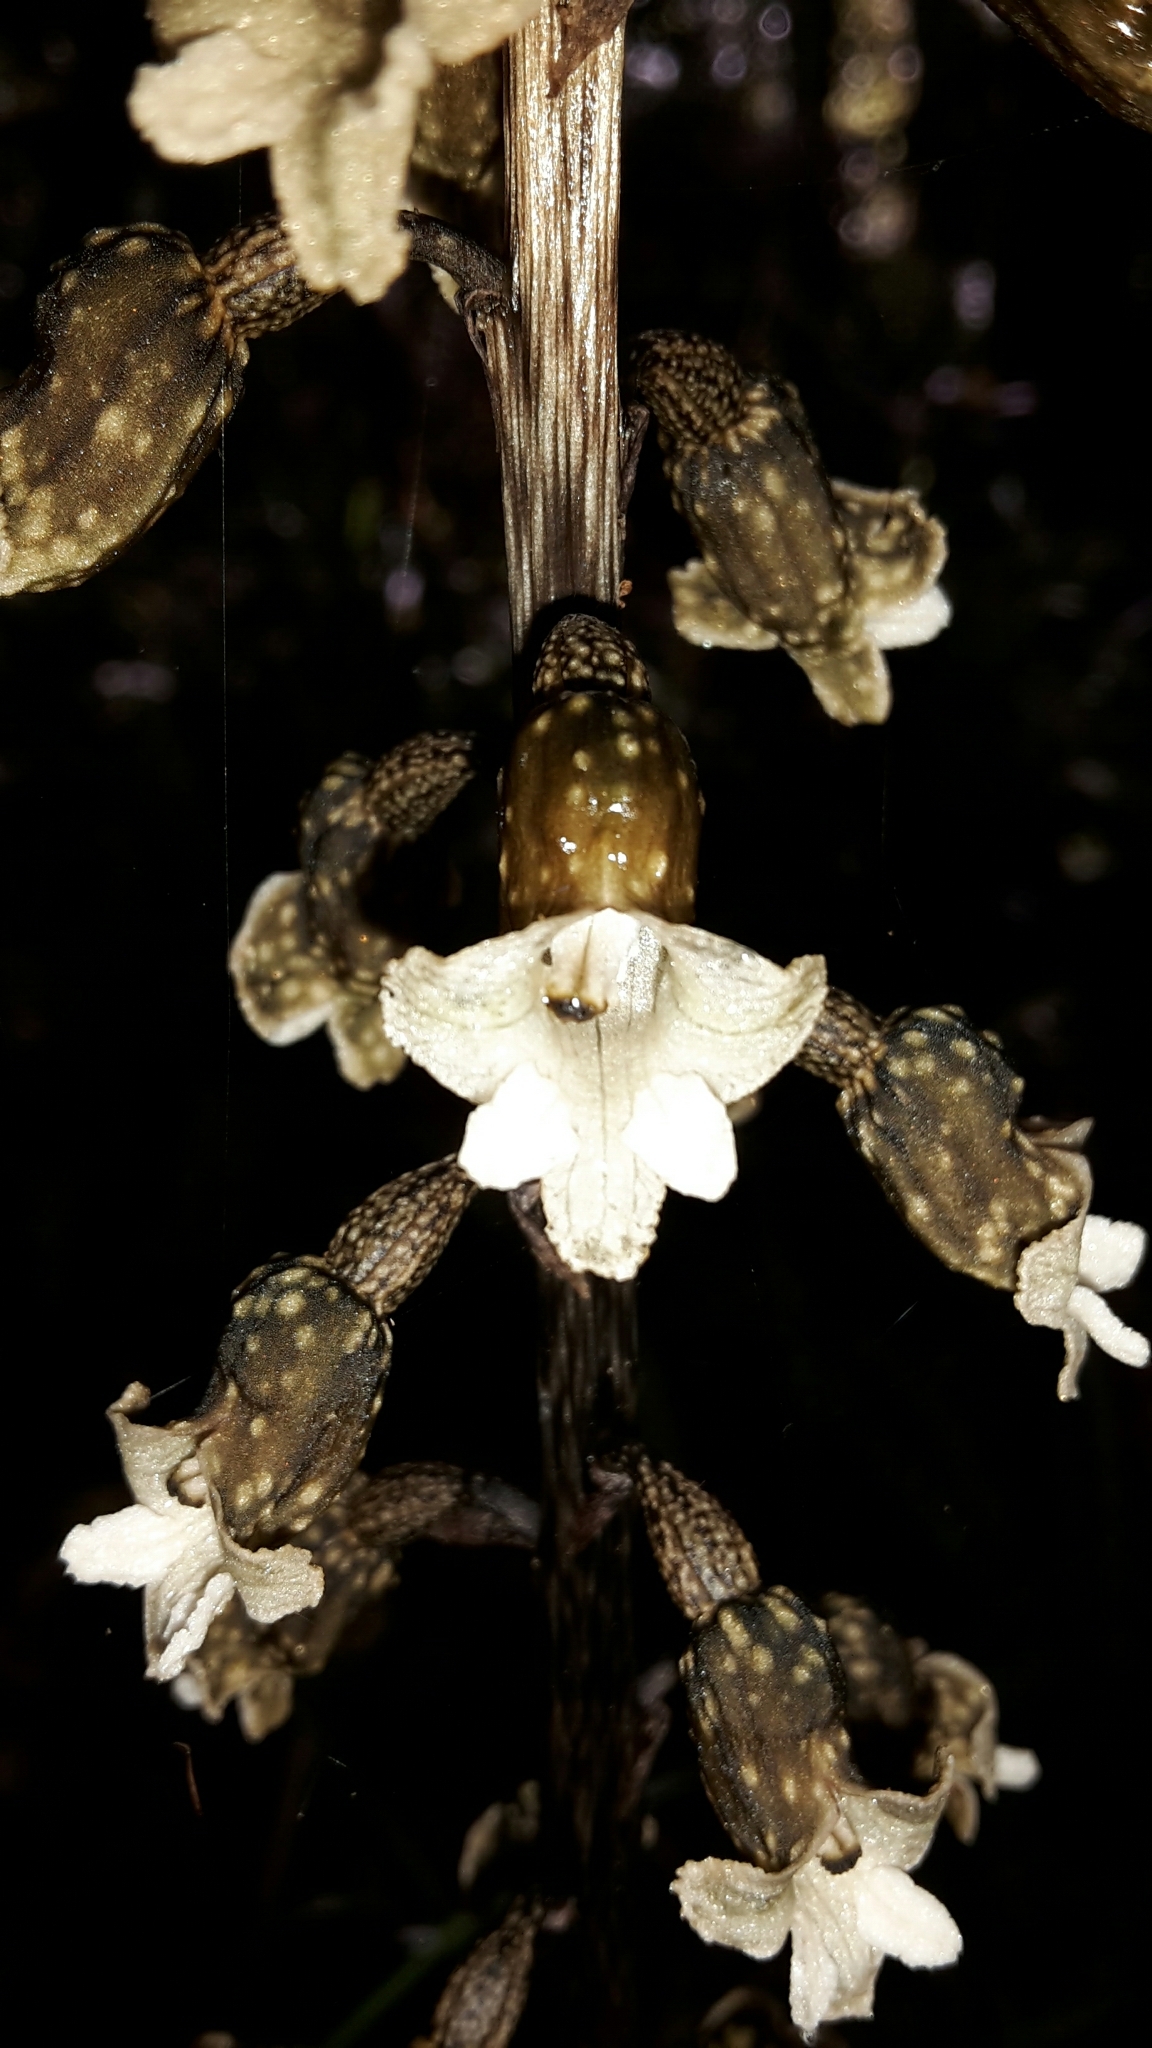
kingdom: Plantae
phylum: Tracheophyta
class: Liliopsida
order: Asparagales
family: Orchidaceae
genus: Gastrodia
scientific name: Gastrodia cunninghamii
